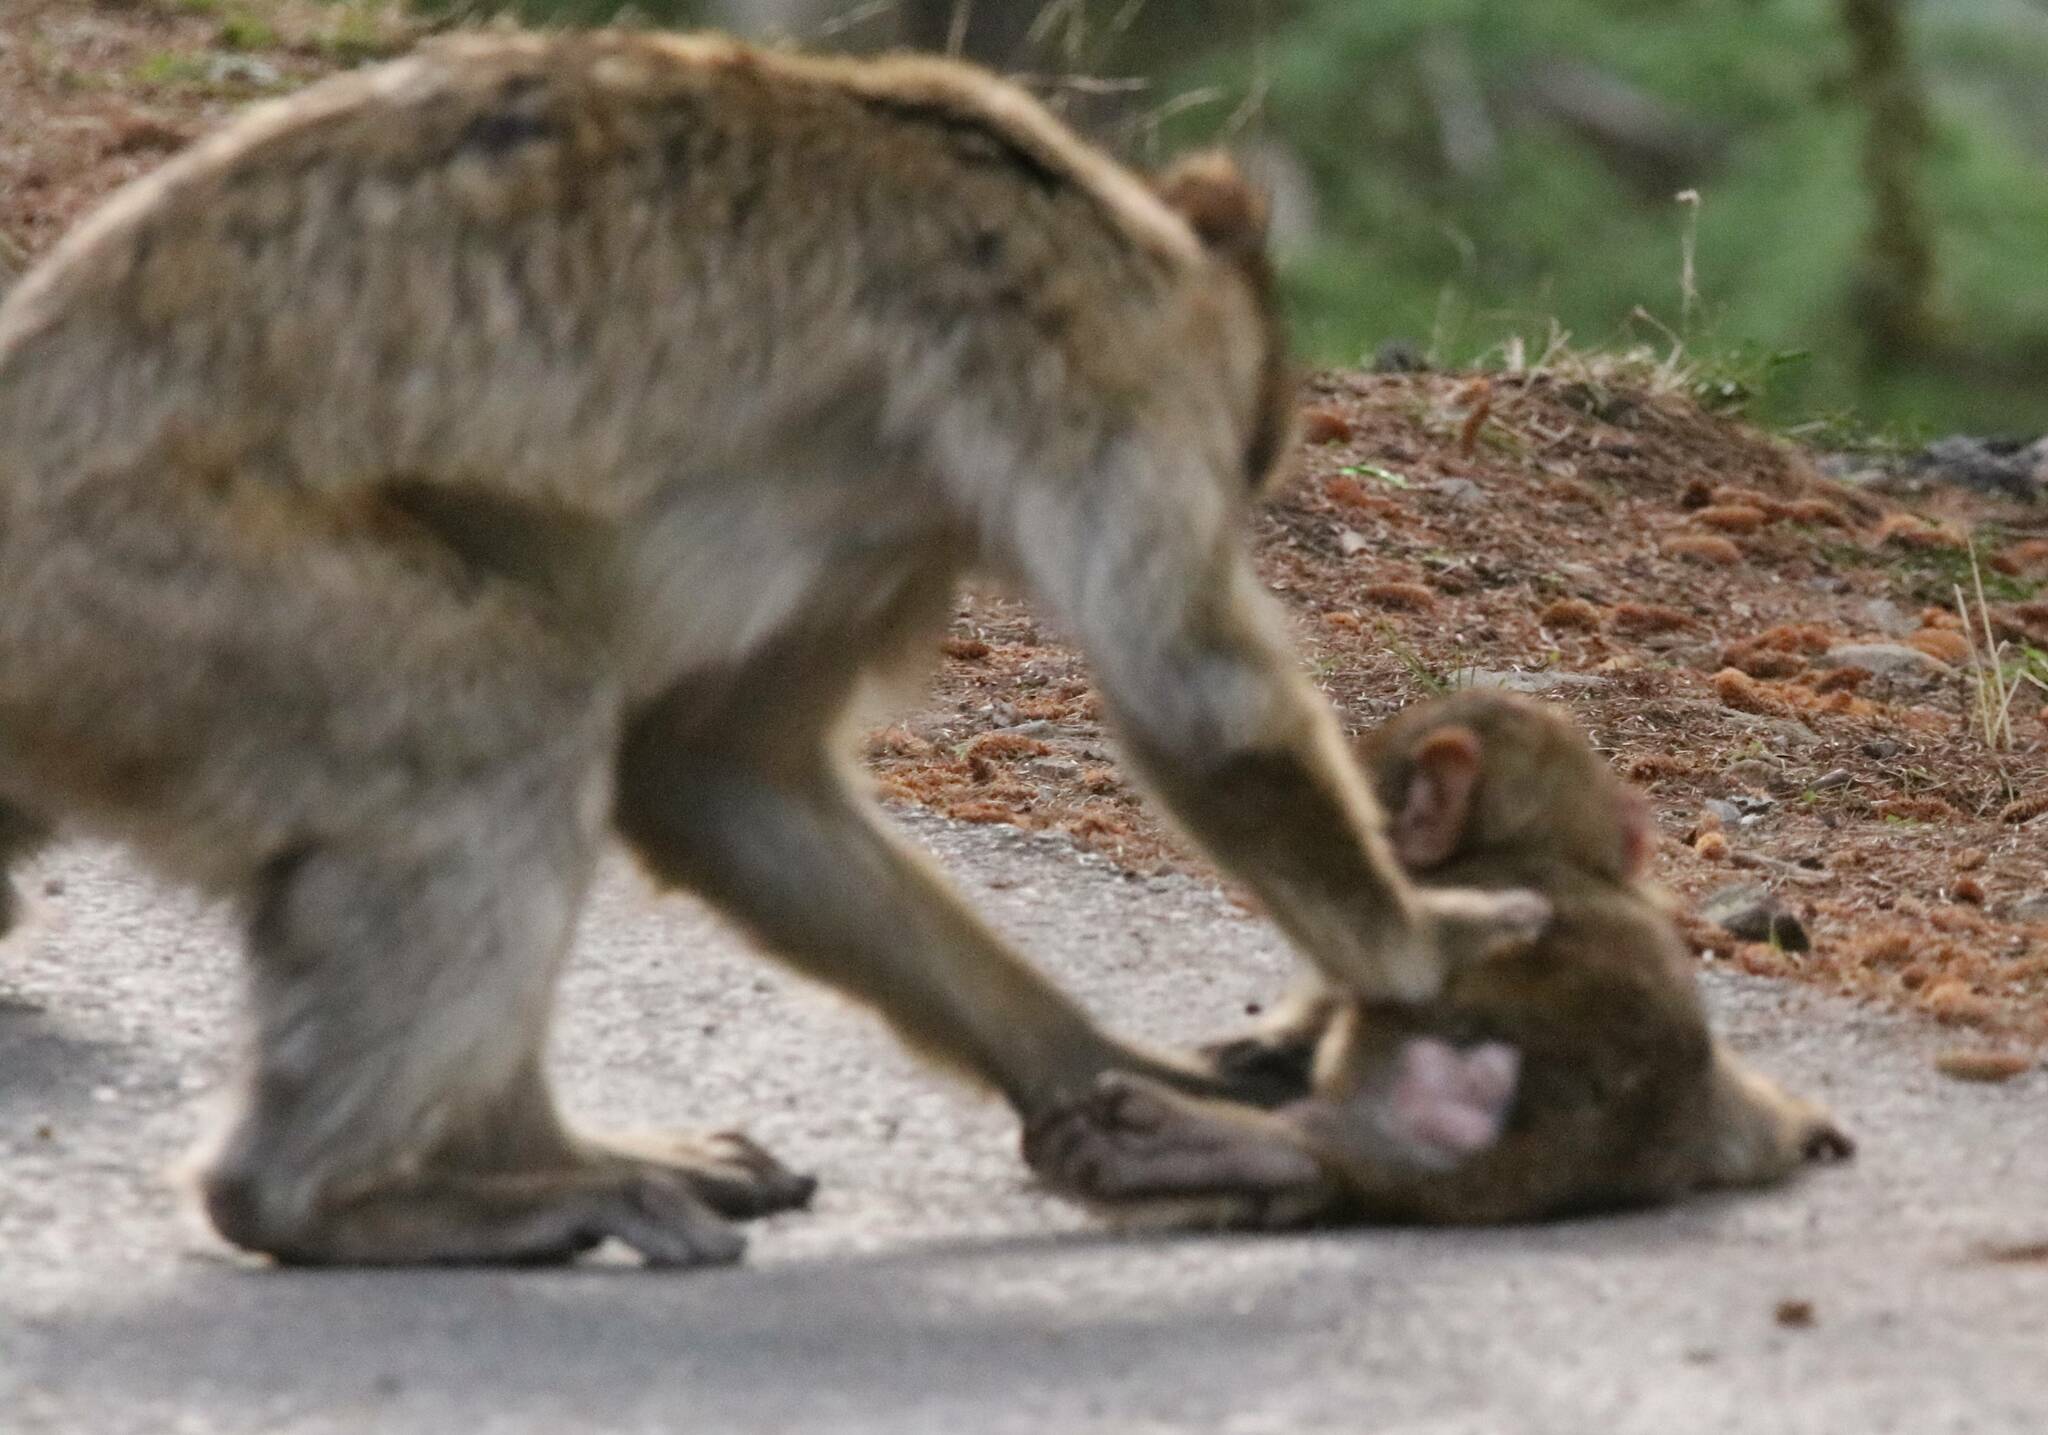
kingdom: Animalia
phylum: Chordata
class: Mammalia
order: Primates
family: Cercopithecidae
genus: Macaca
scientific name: Macaca sylvanus
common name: Barbary macaque
